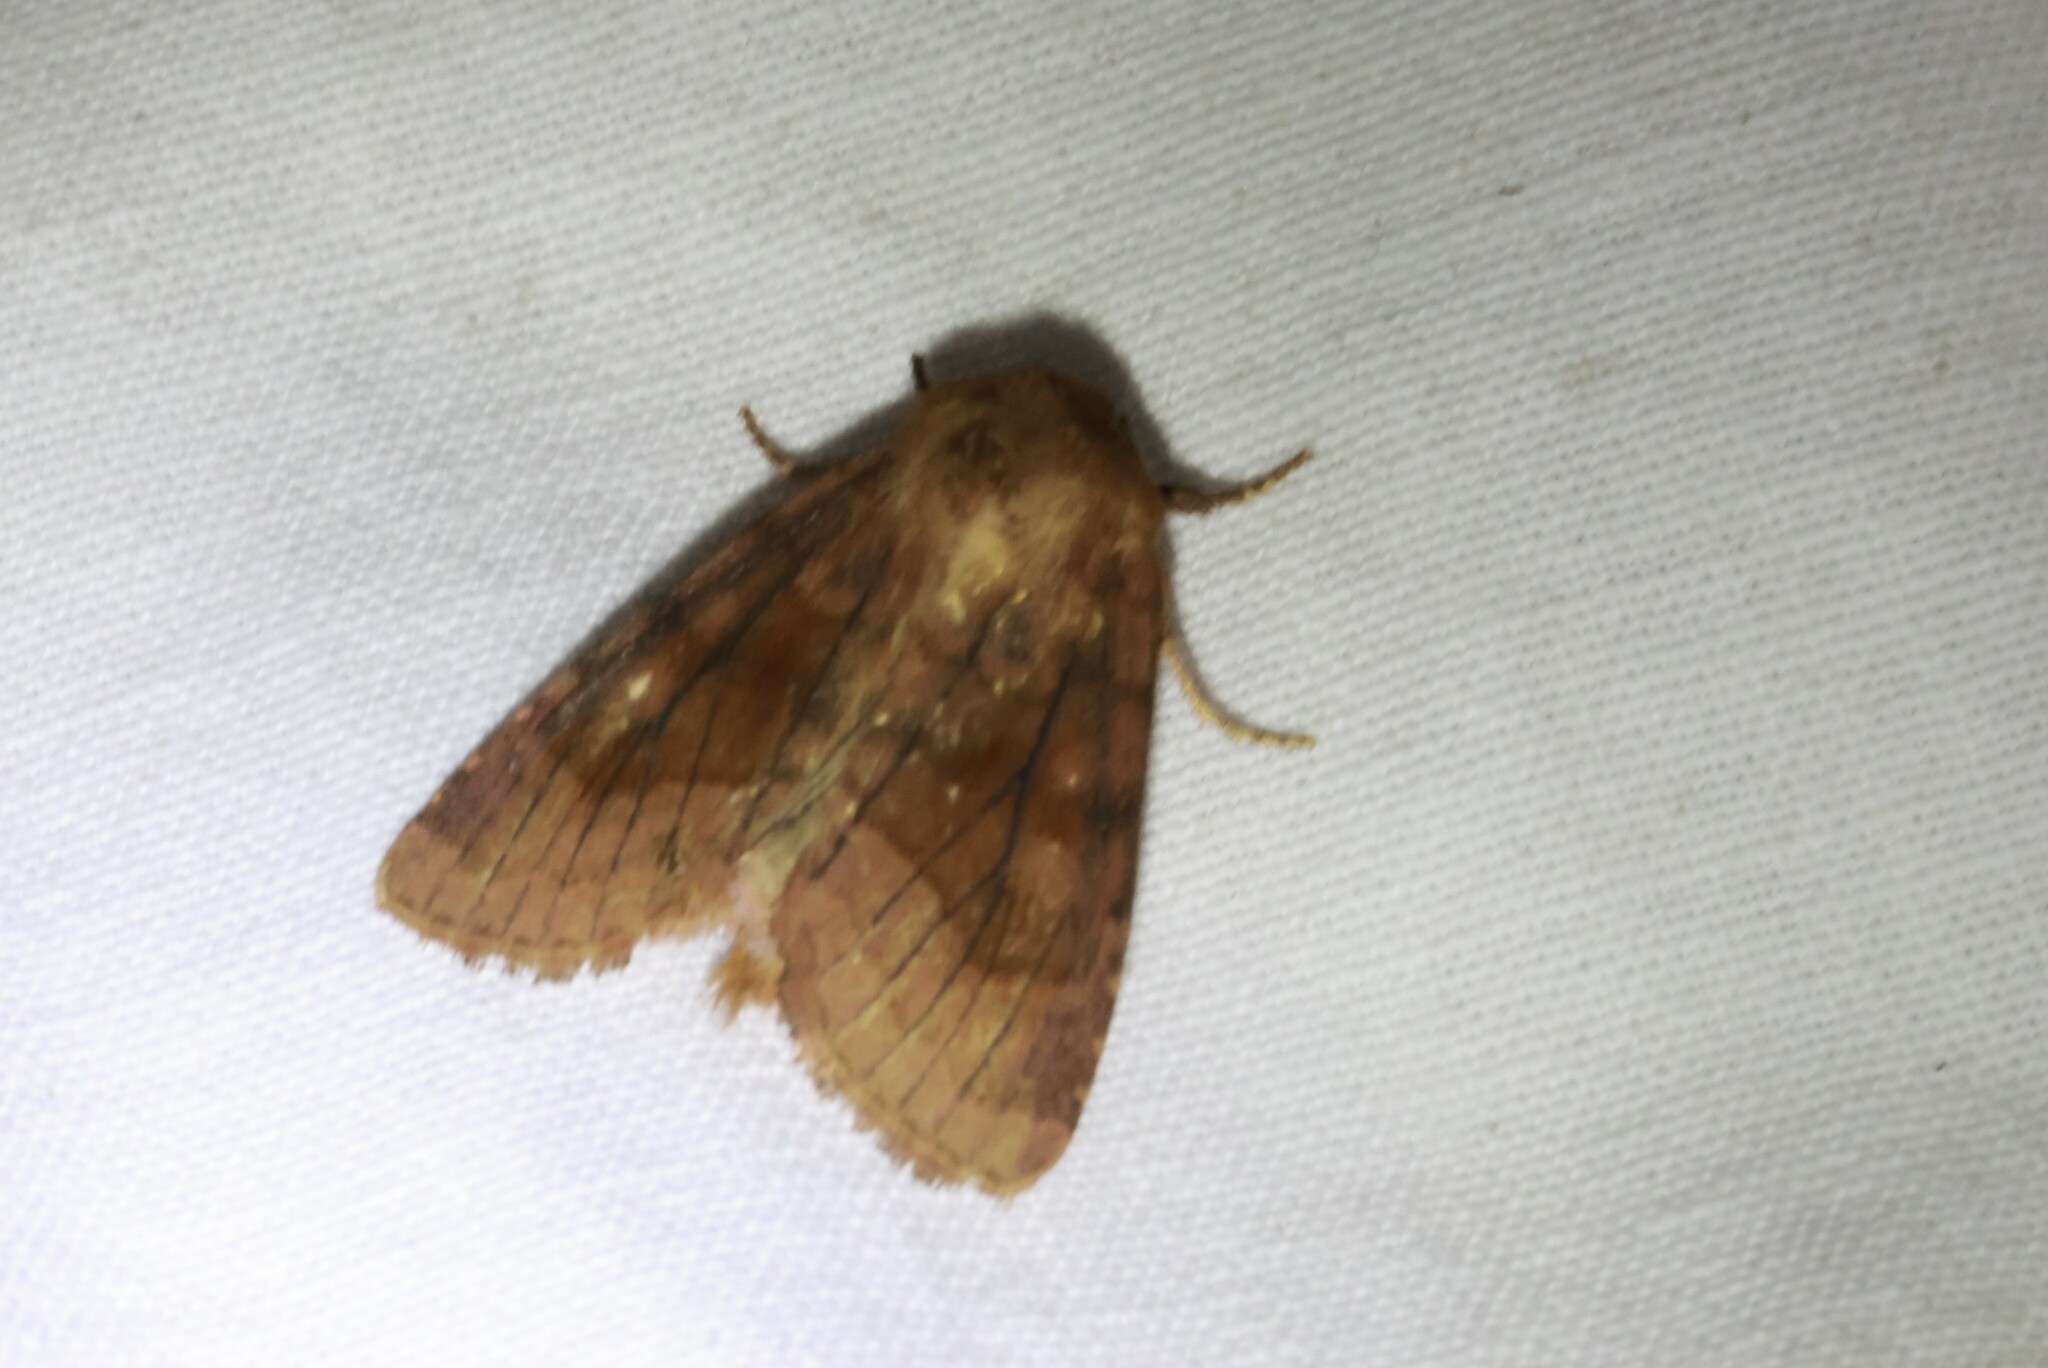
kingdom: Animalia
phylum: Arthropoda
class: Insecta
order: Lepidoptera
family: Noctuidae
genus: Nephelodes
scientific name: Nephelodes minians
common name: Bronzed cutworm
